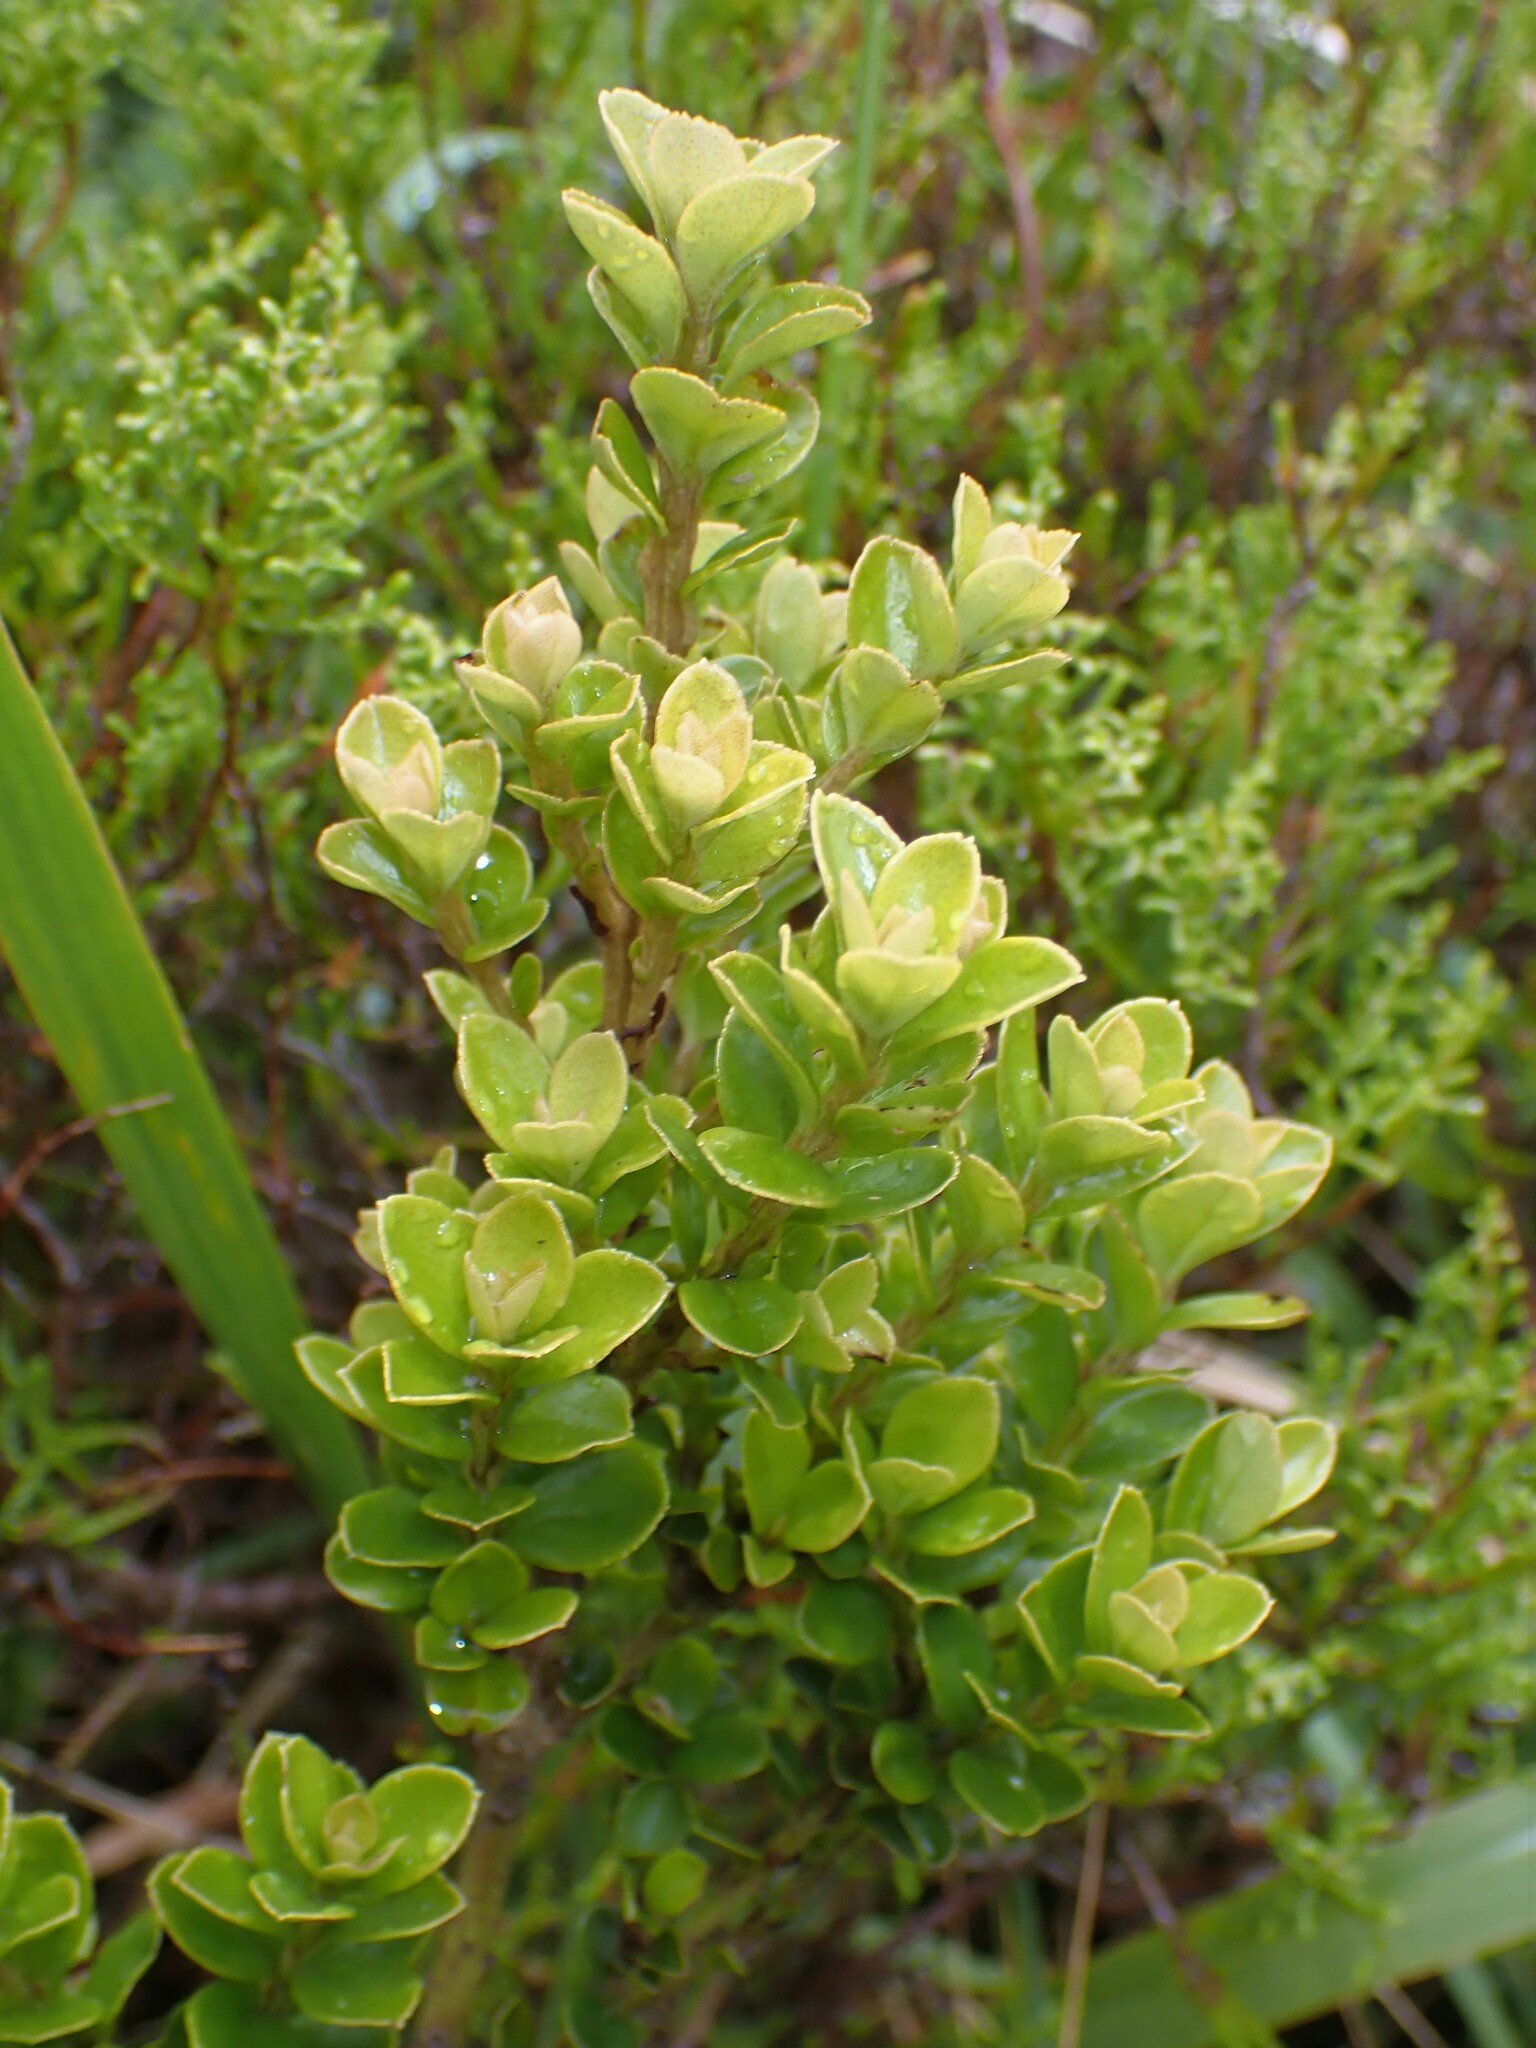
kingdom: Plantae
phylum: Tracheophyta
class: Magnoliopsida
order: Ericales
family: Primulaceae
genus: Myrsine
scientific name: Myrsine africana
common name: African-boxwood
